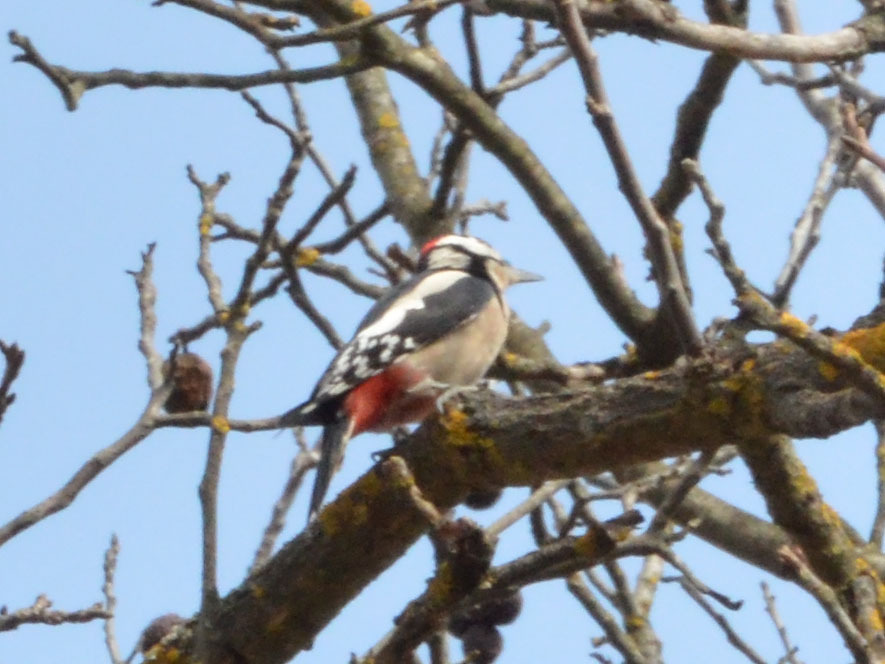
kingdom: Animalia
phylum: Chordata
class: Aves
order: Piciformes
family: Picidae
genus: Dendrocopos
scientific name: Dendrocopos major
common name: Great spotted woodpecker
